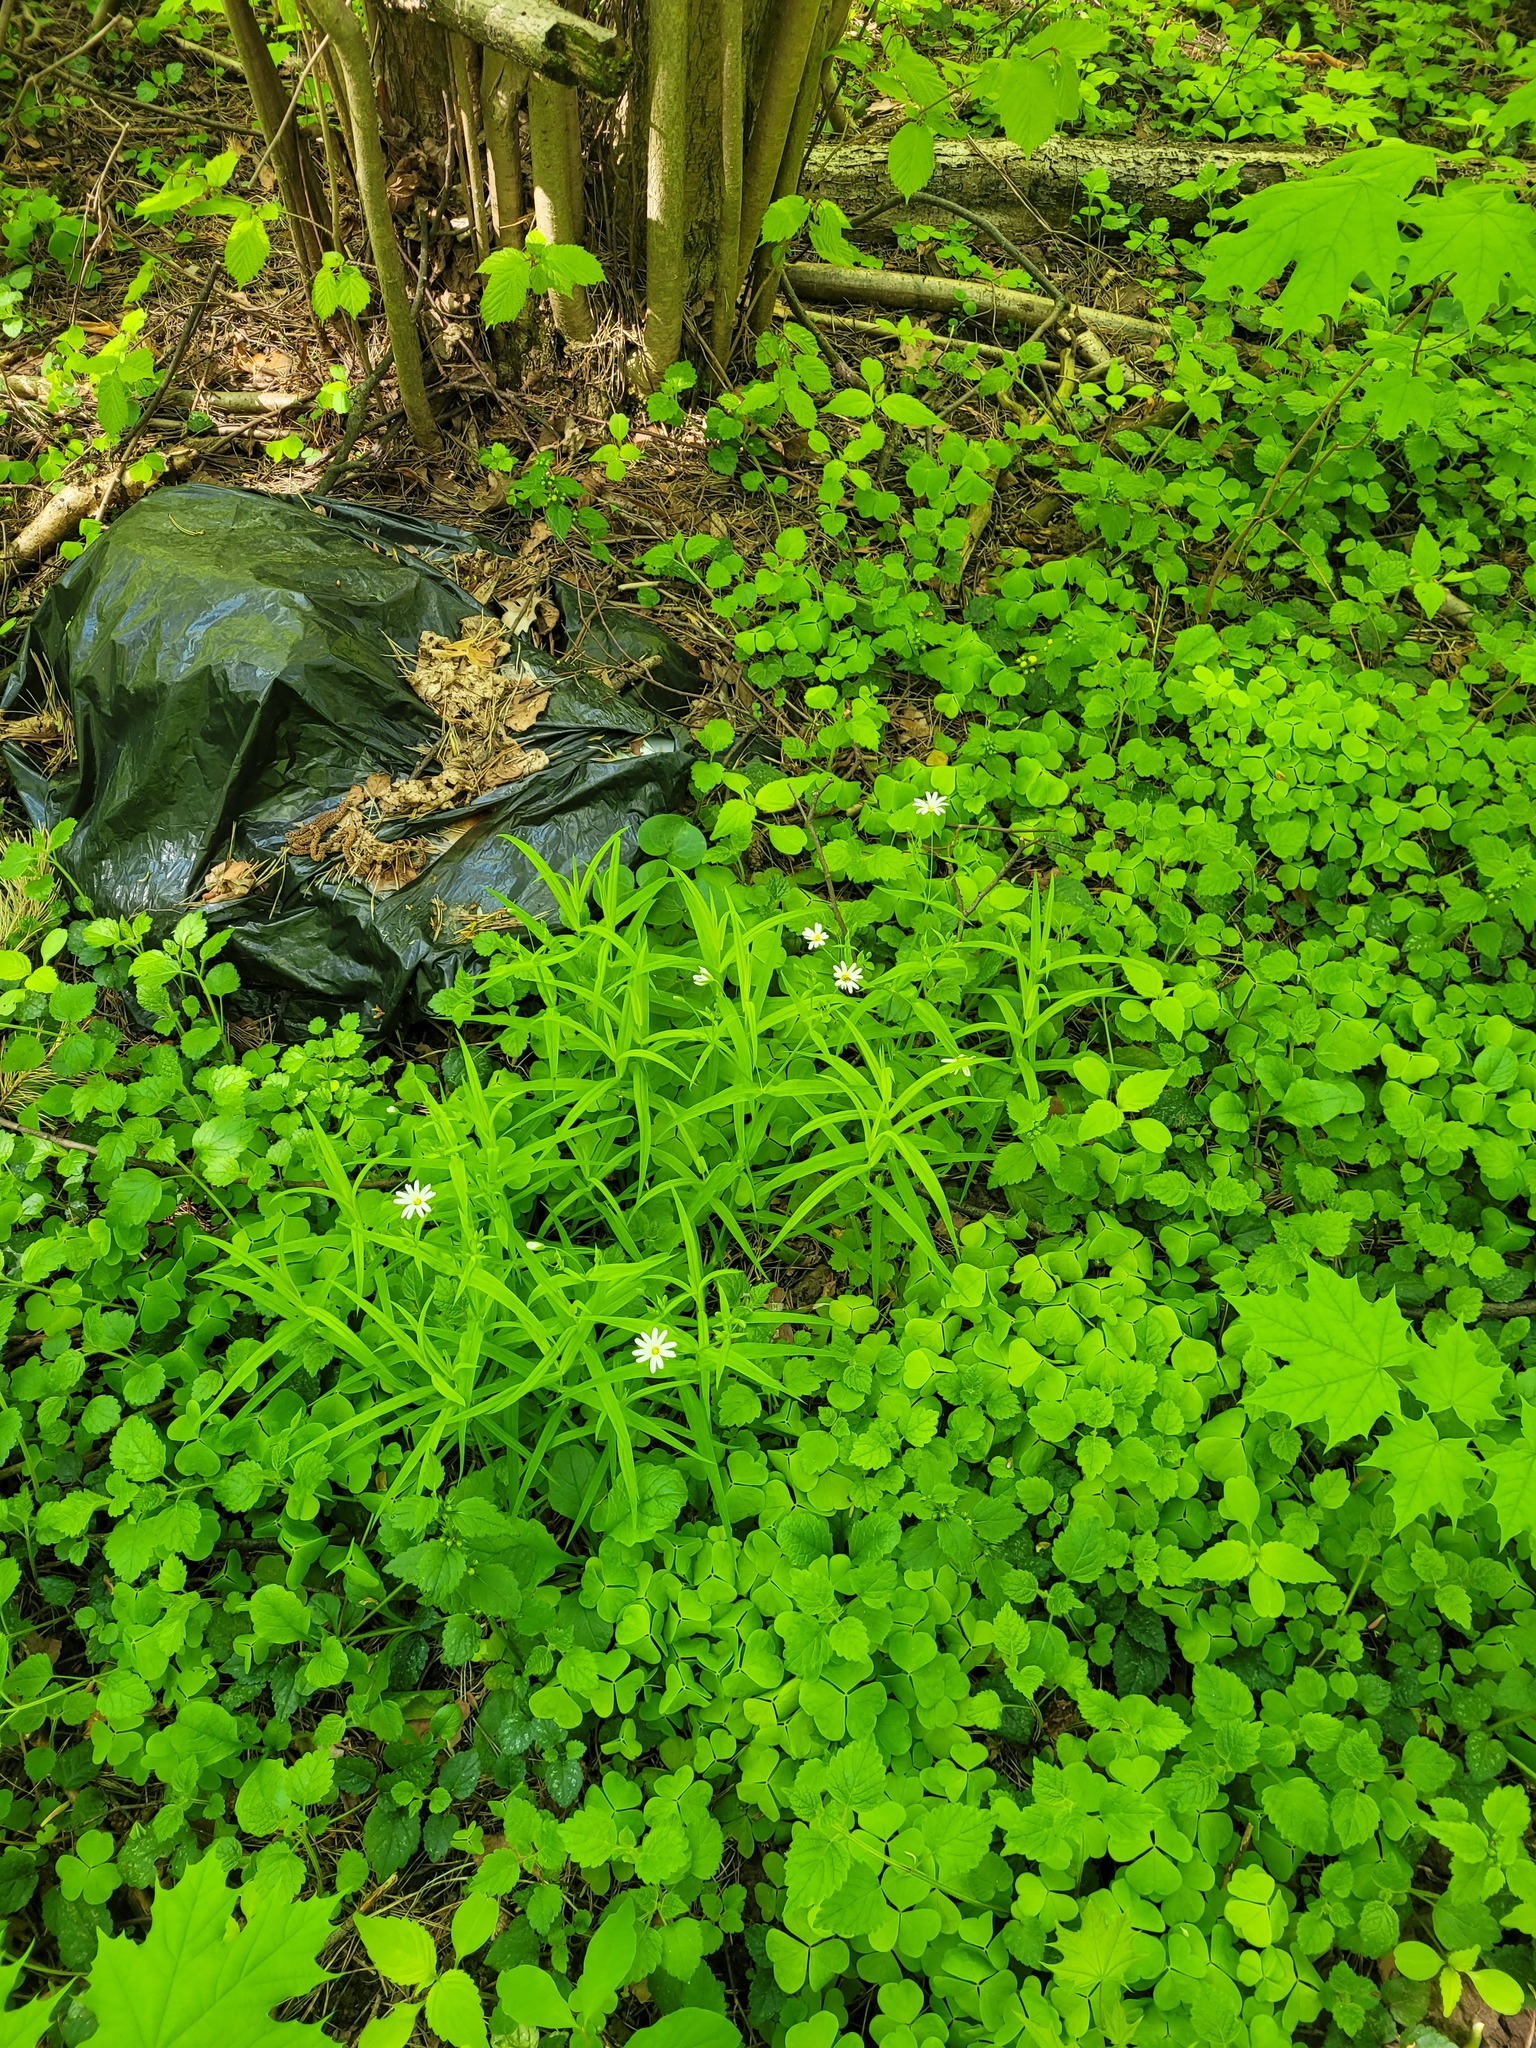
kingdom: Plantae
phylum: Tracheophyta
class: Magnoliopsida
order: Caryophyllales
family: Caryophyllaceae
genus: Rabelera
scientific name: Rabelera holostea
